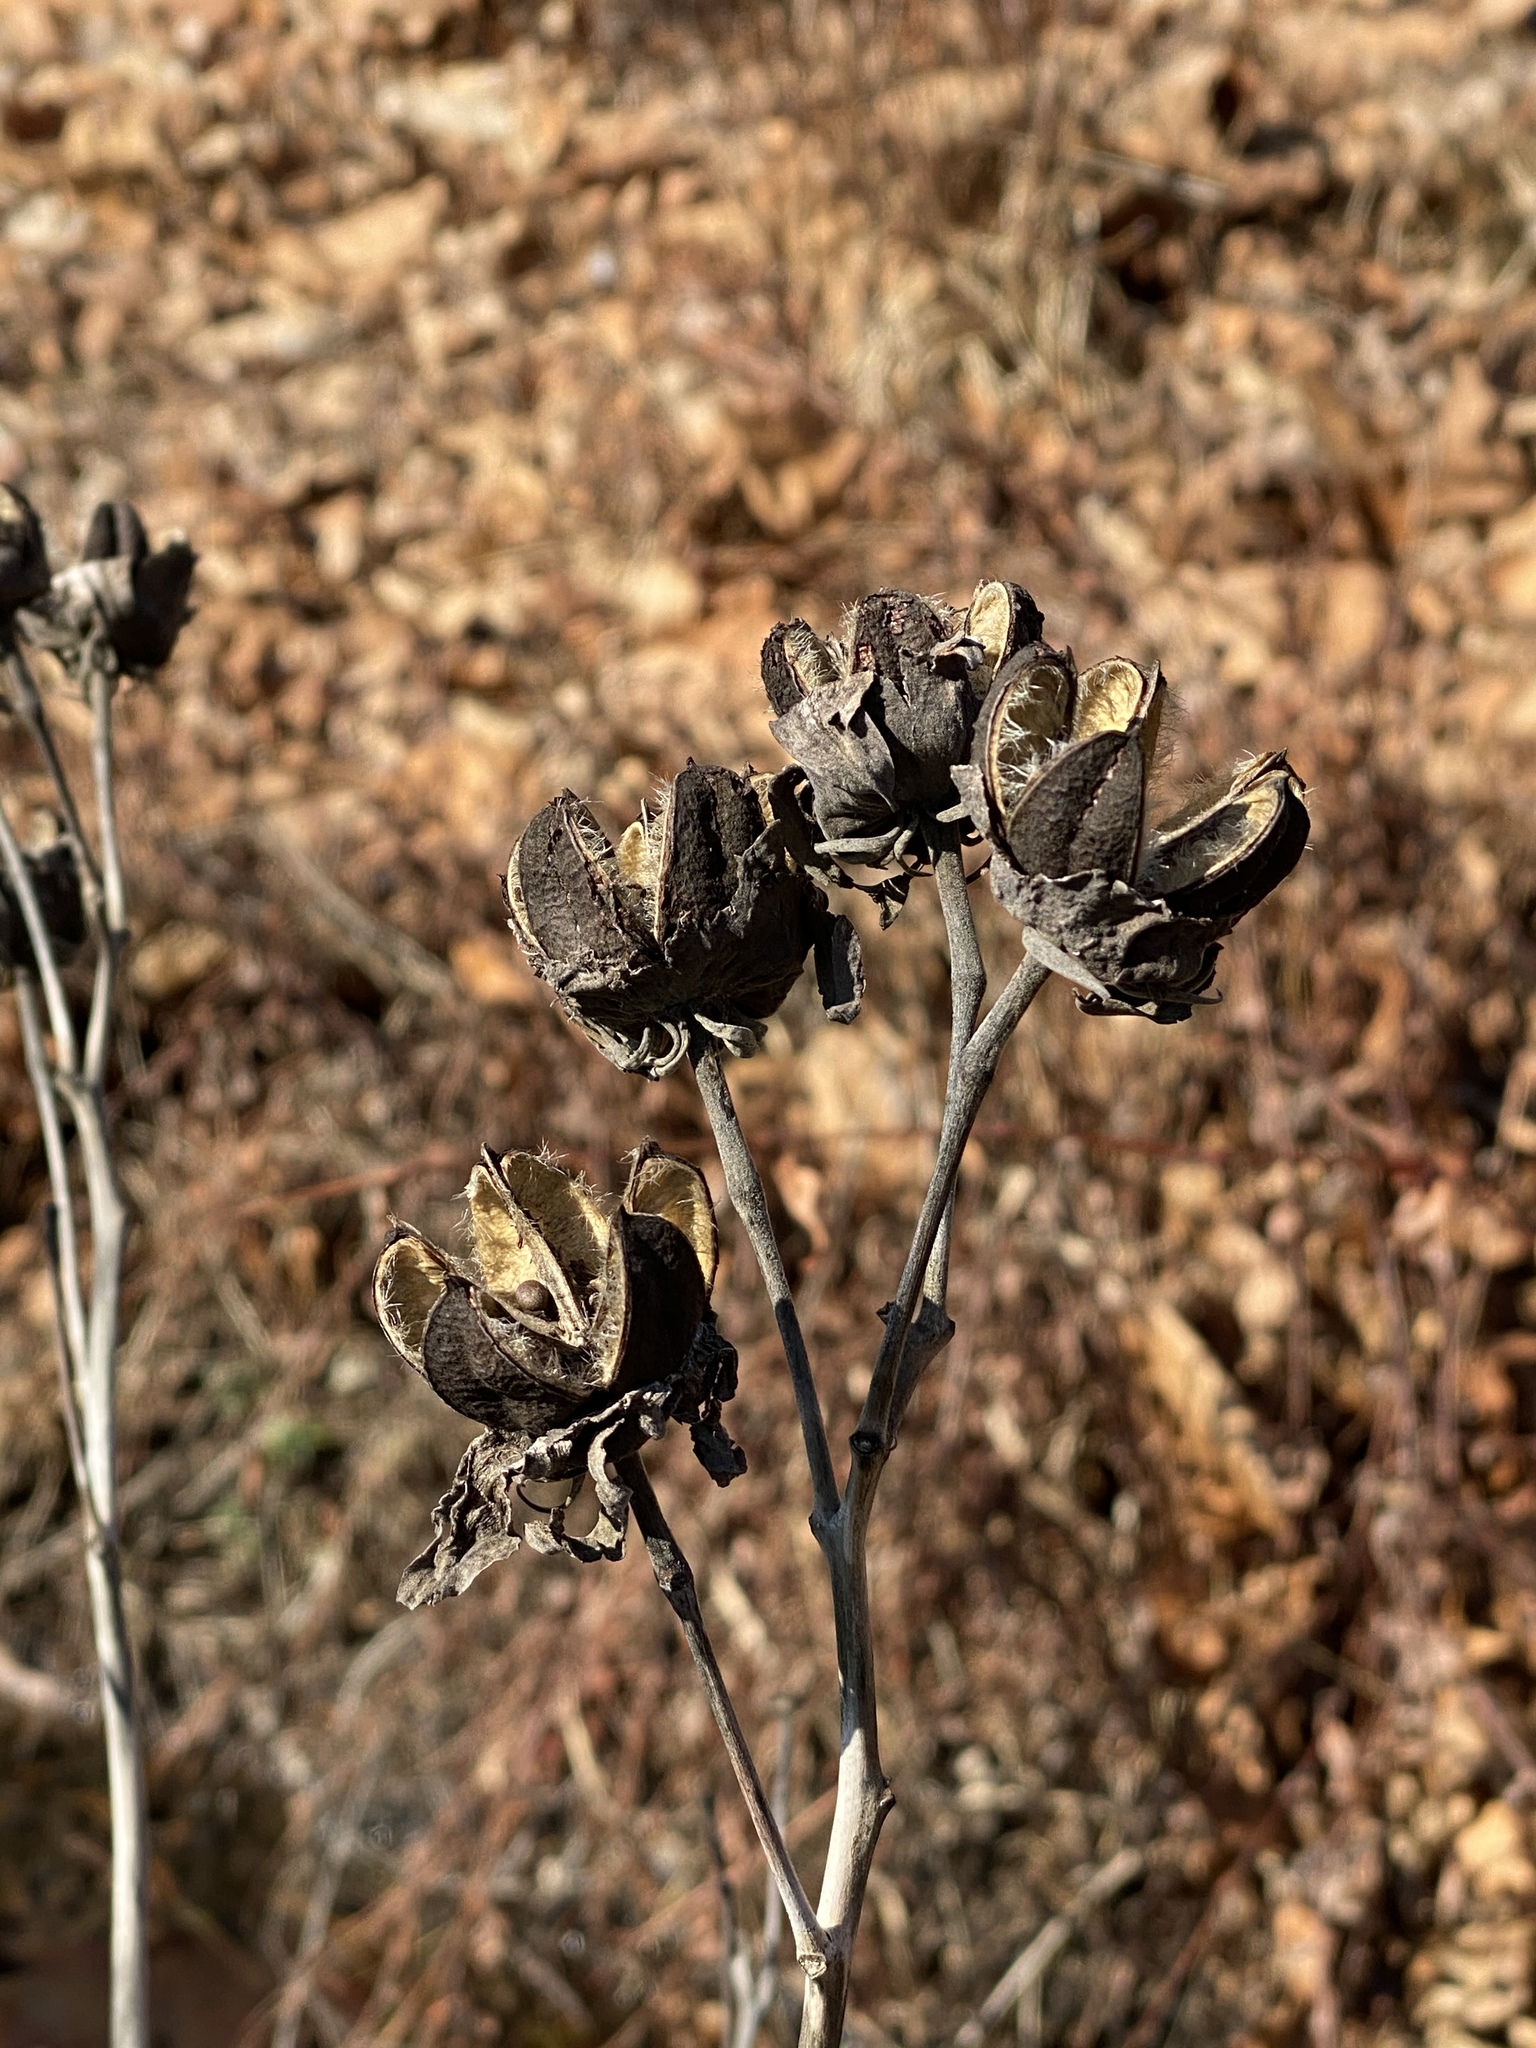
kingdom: Plantae
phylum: Tracheophyta
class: Magnoliopsida
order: Malvales
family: Malvaceae
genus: Hibiscus
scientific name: Hibiscus moscheutos
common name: Common rose-mallow
